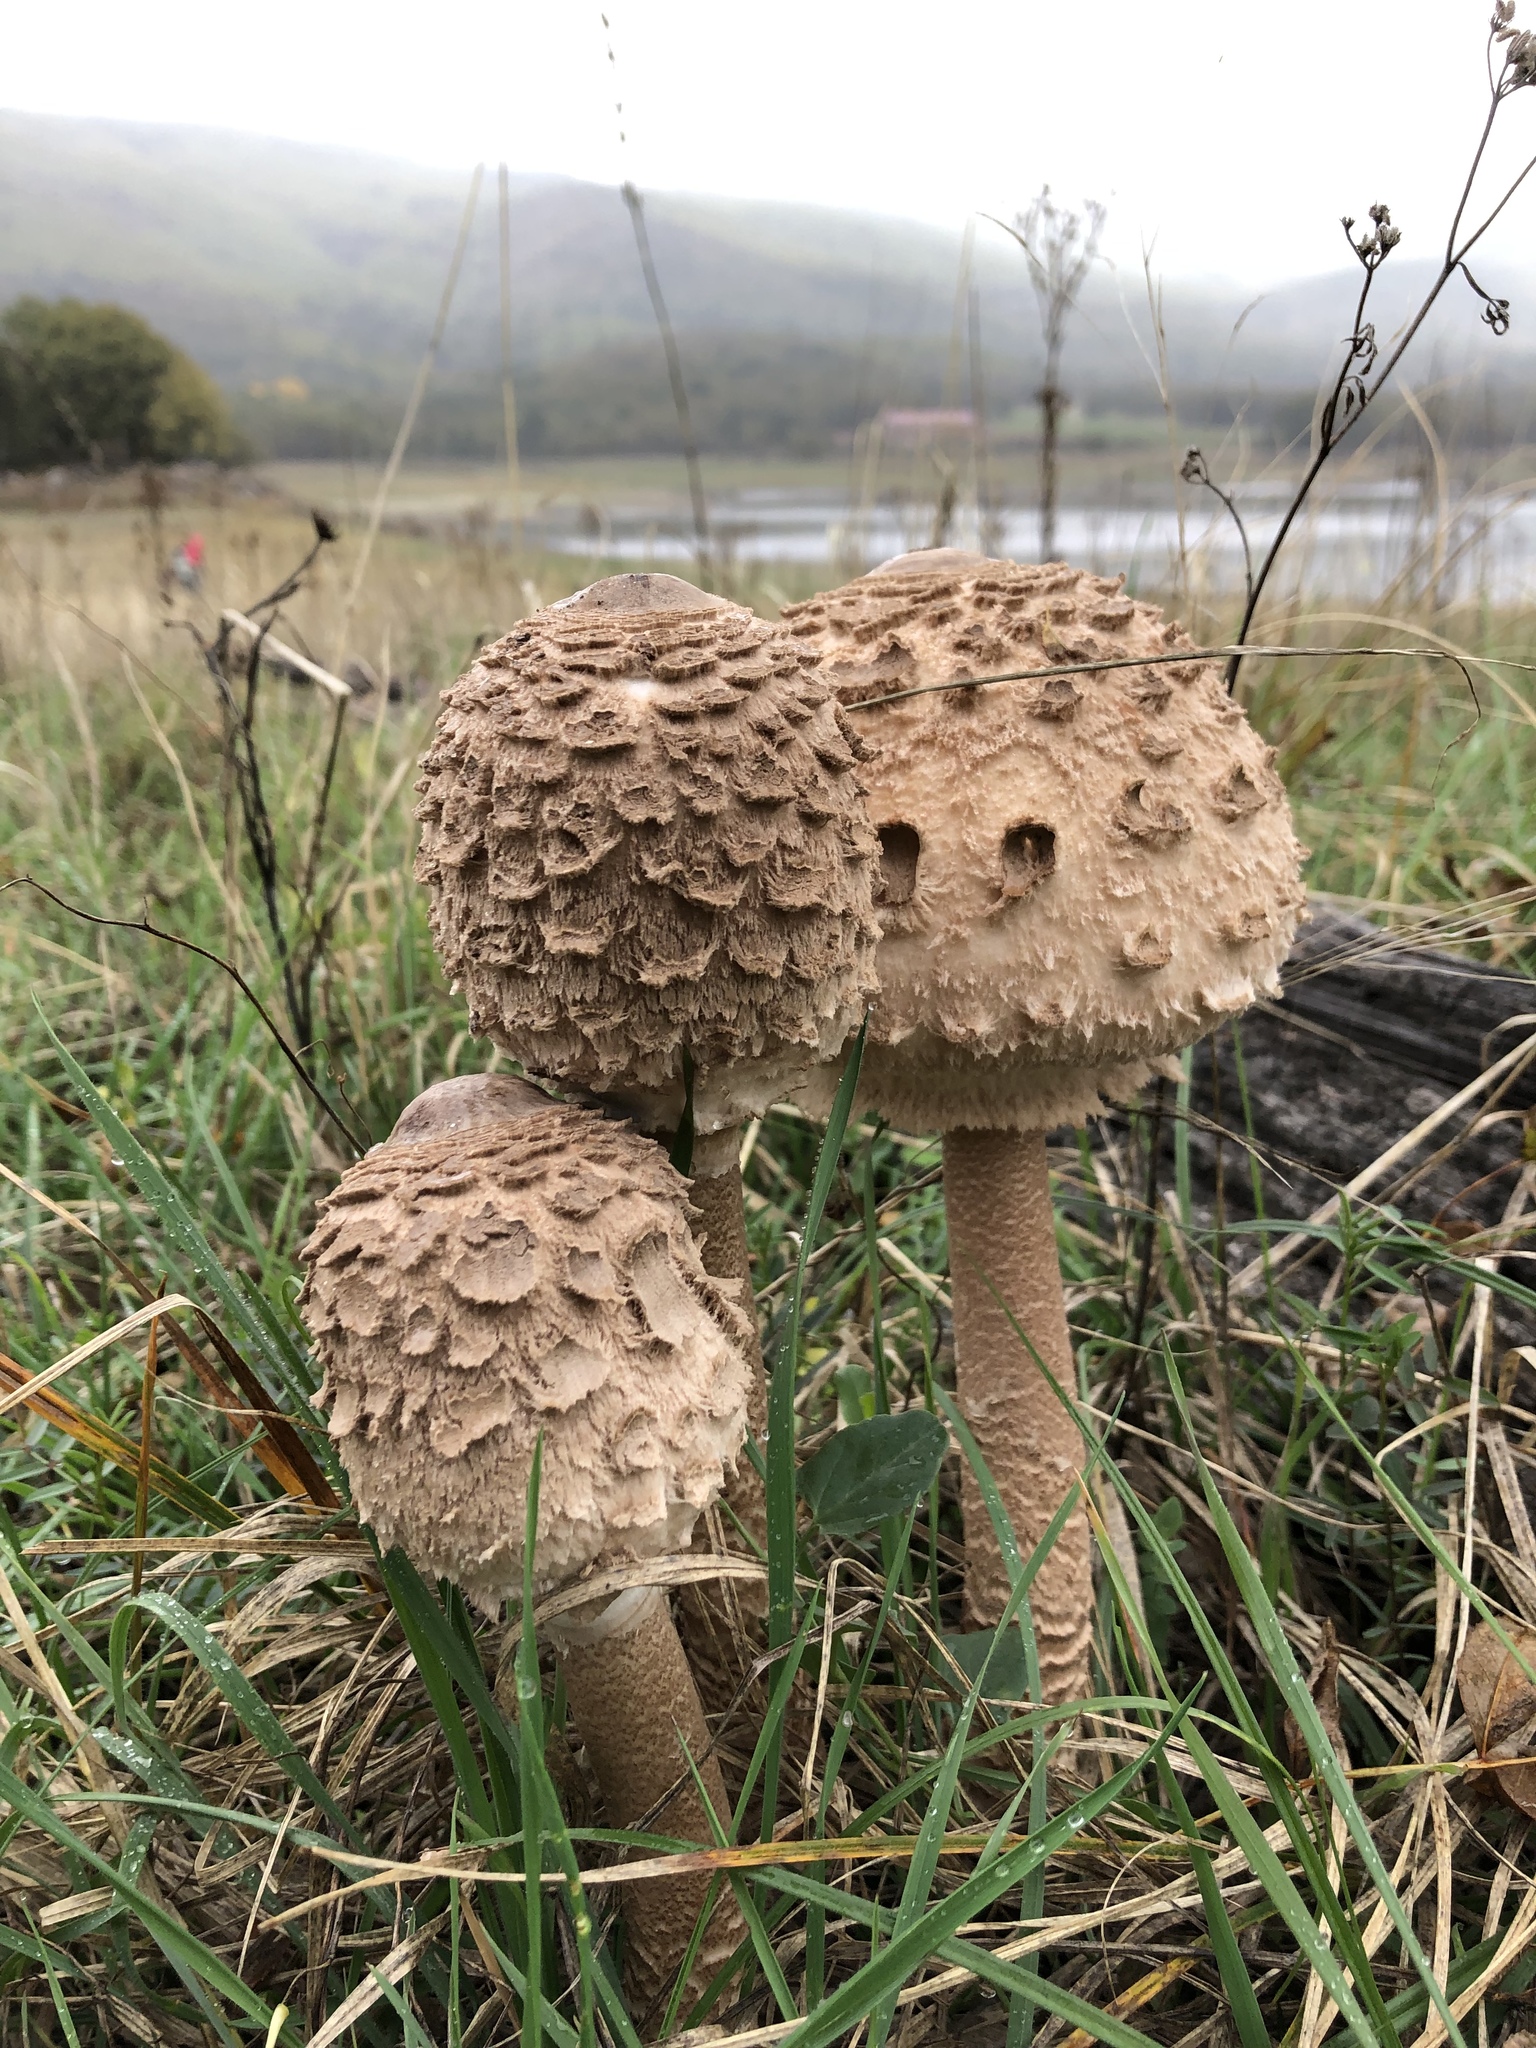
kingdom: Fungi
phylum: Basidiomycota
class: Agaricomycetes
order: Agaricales
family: Agaricaceae
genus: Macrolepiota
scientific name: Macrolepiota procera
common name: Parasol
